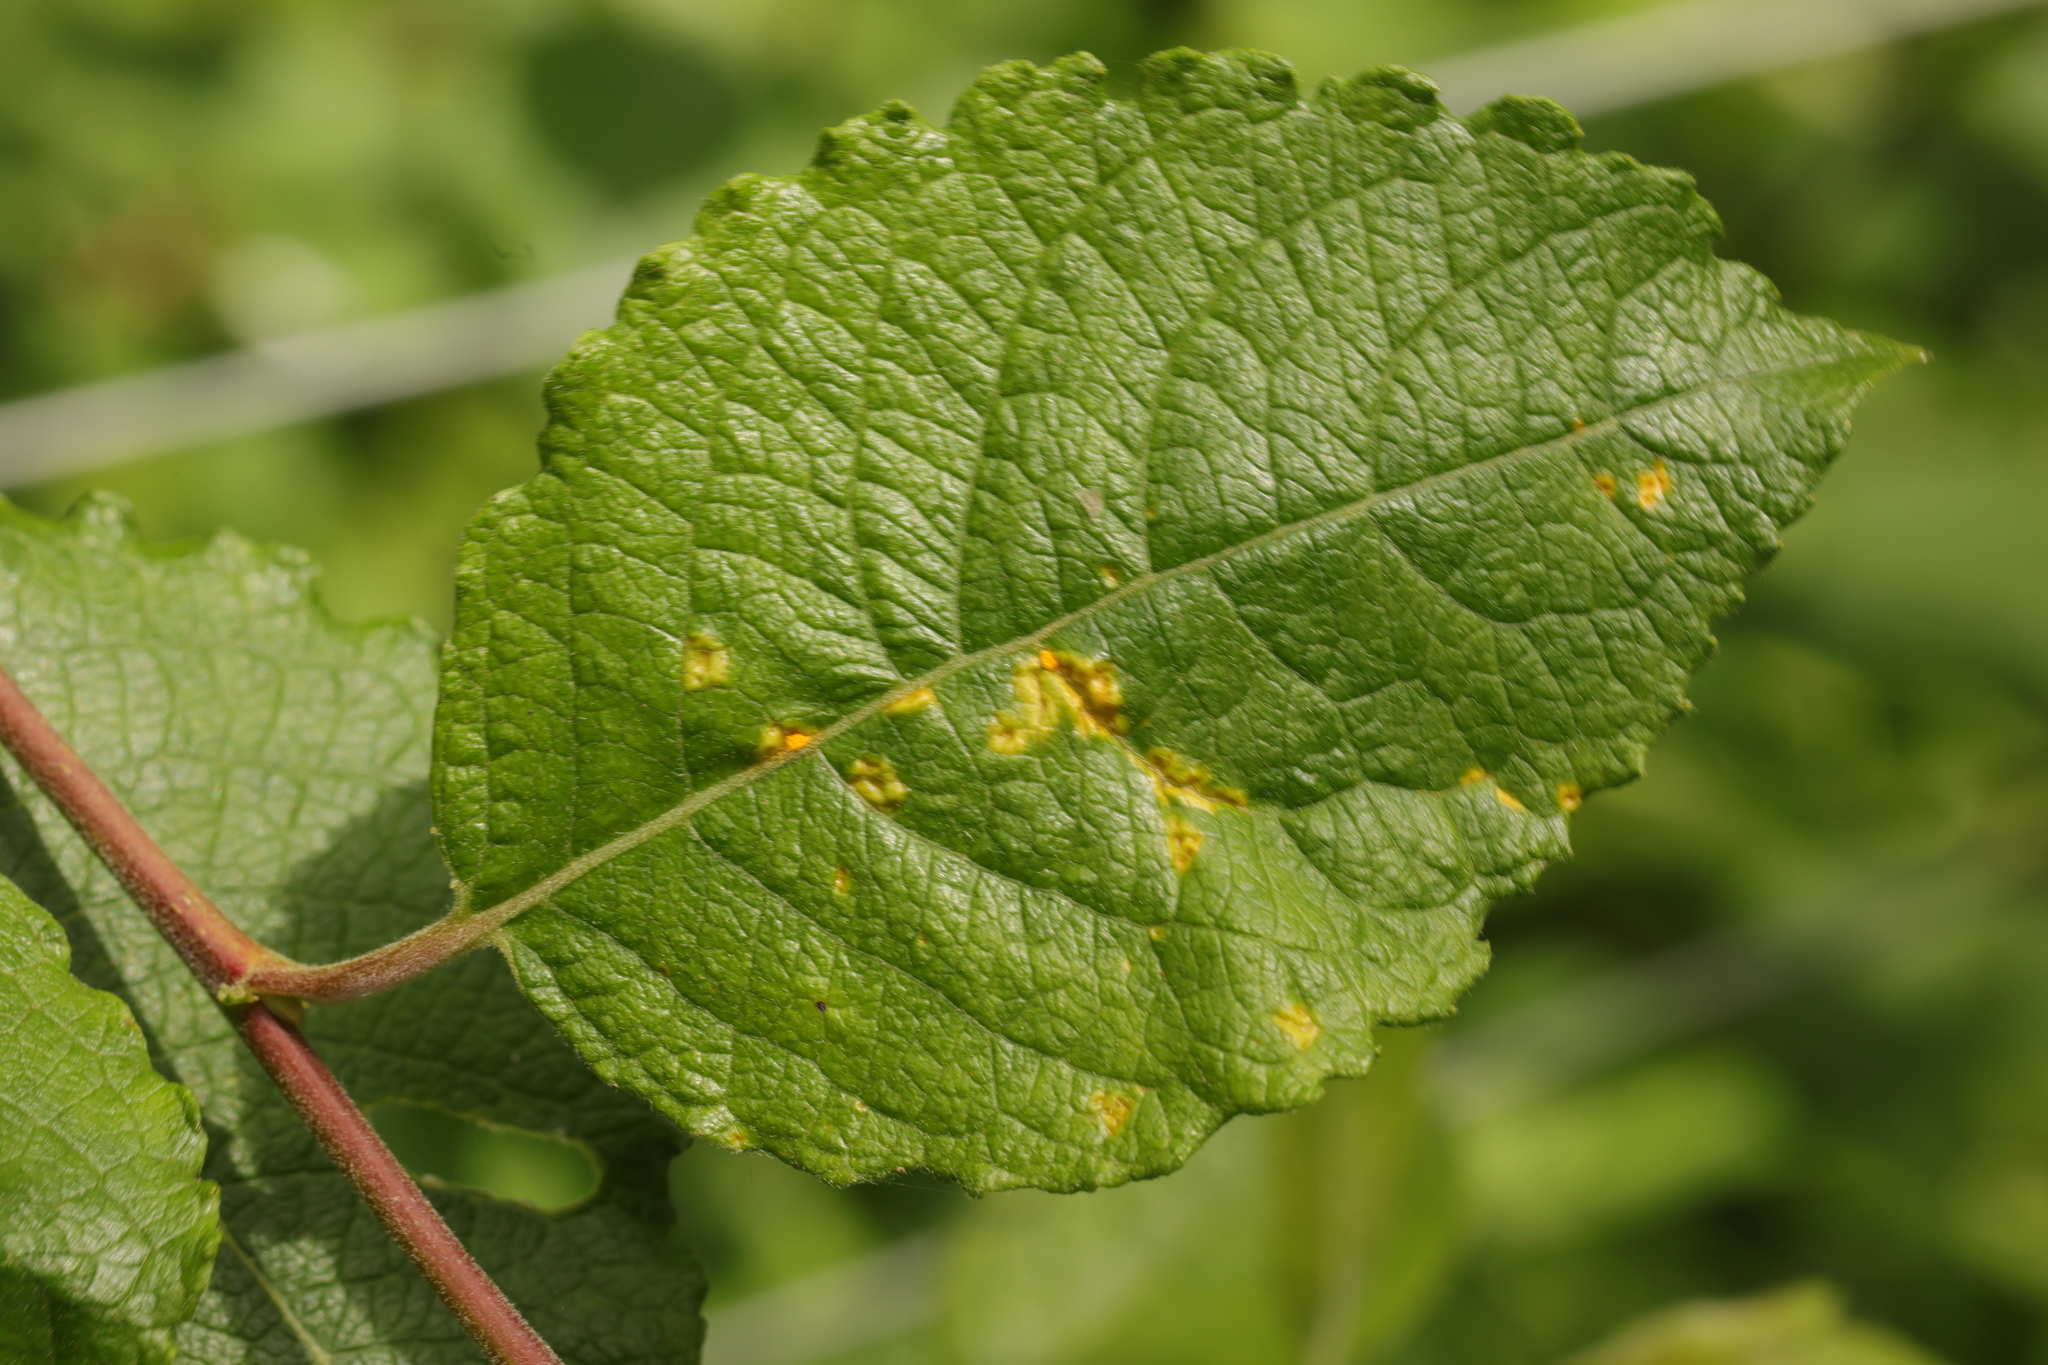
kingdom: Fungi
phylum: Basidiomycota
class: Pucciniomycetes
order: Pucciniales
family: Melampsoraceae
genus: Melampsora
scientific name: Melampsora
